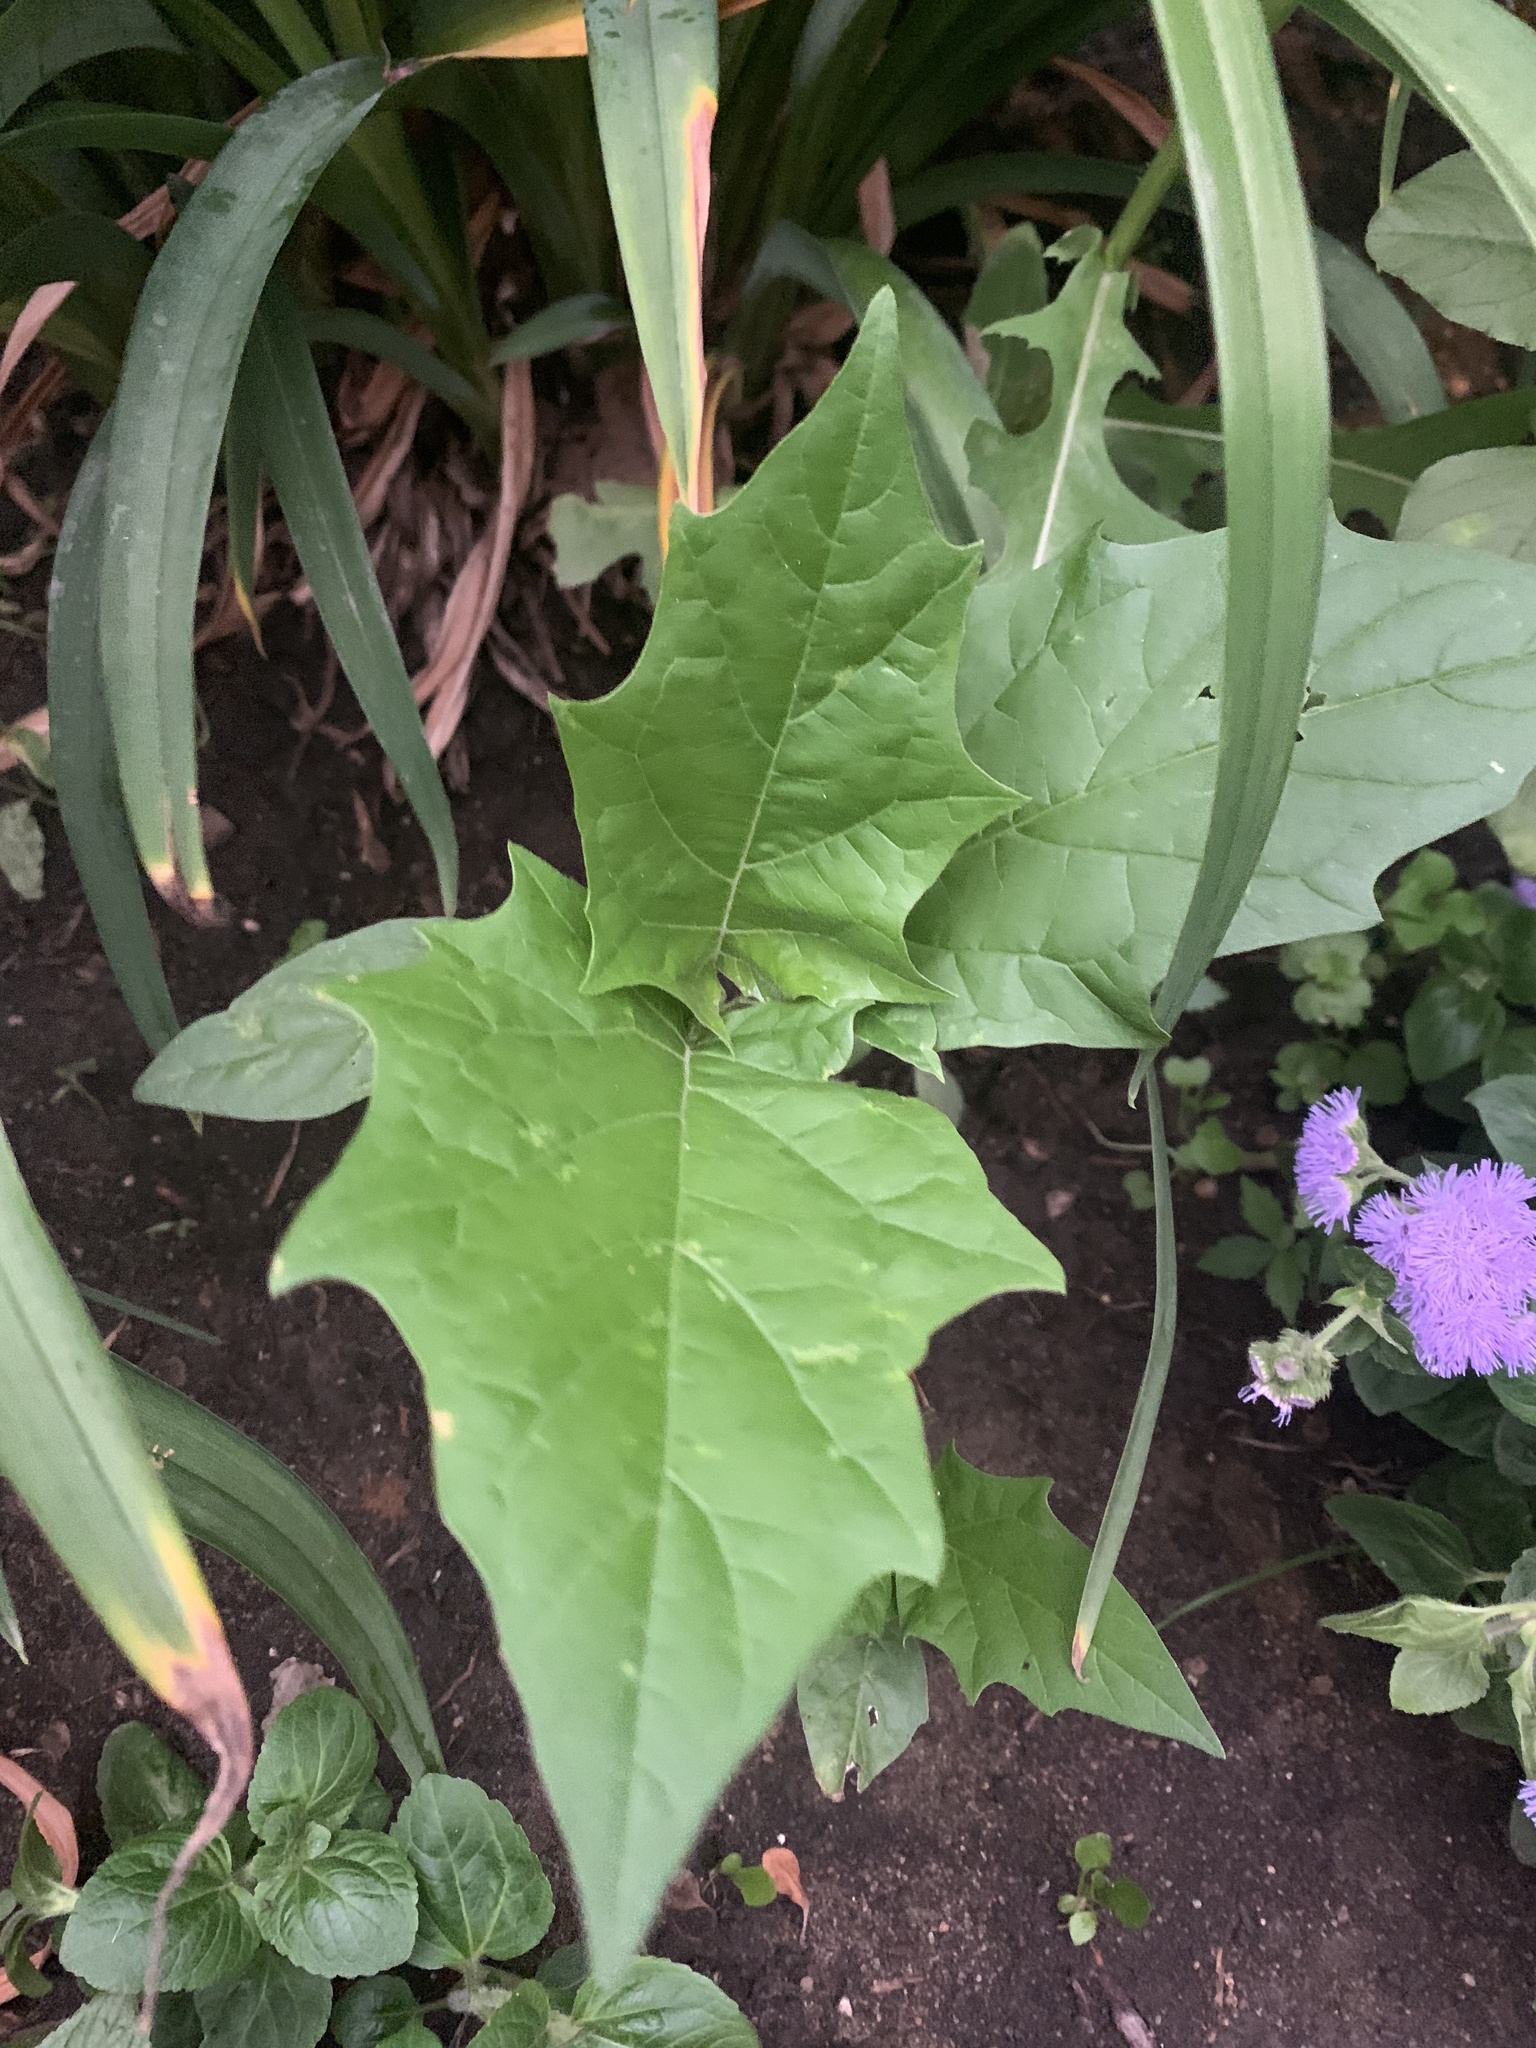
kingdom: Plantae
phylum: Tracheophyta
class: Magnoliopsida
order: Solanales
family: Solanaceae
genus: Datura
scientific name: Datura stramonium
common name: Thorn-apple
